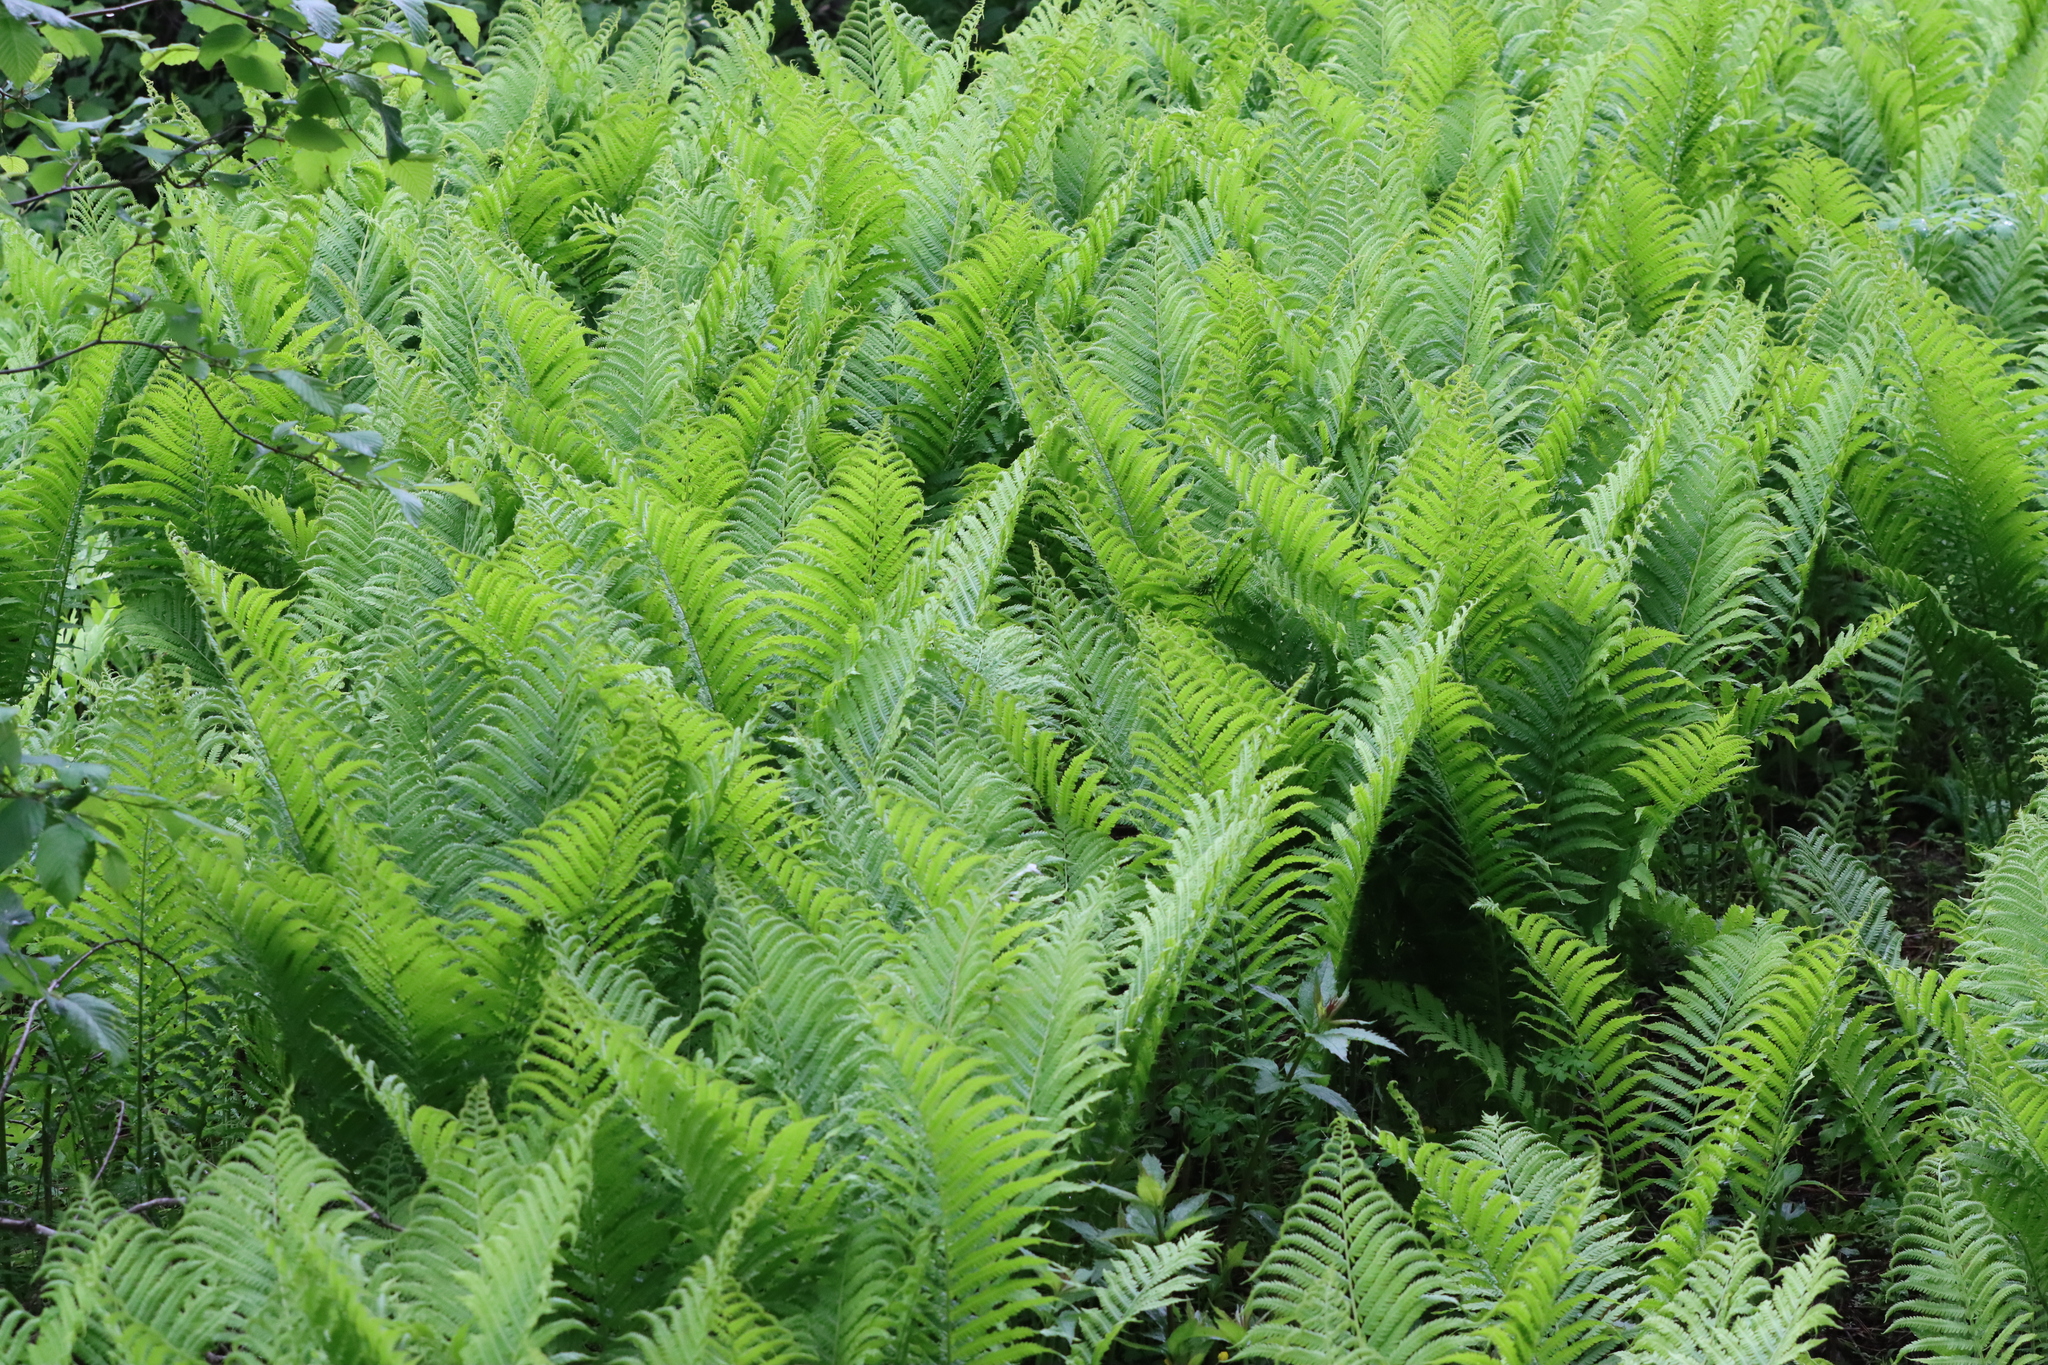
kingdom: Plantae
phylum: Tracheophyta
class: Polypodiopsida
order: Polypodiales
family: Onocleaceae
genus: Matteuccia
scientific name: Matteuccia struthiopteris
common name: Ostrich fern
